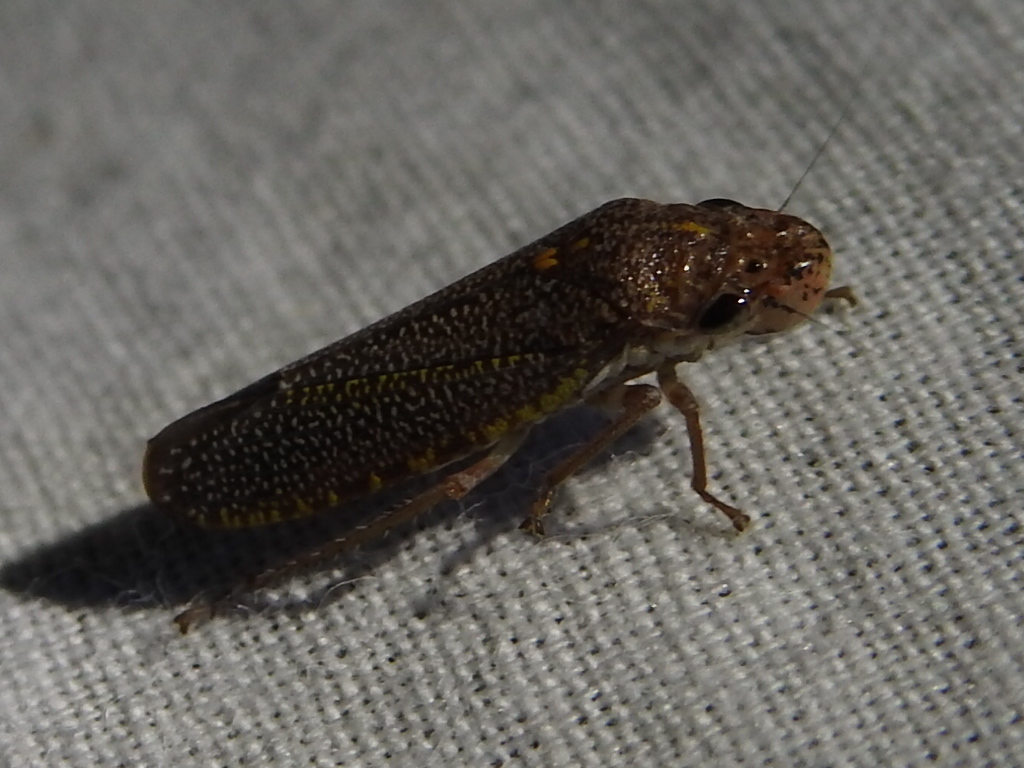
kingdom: Animalia
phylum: Arthropoda
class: Insecta
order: Hemiptera
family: Cicadellidae
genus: Paraulacizes
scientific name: Paraulacizes irrorata
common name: Speckled sharpshooter
